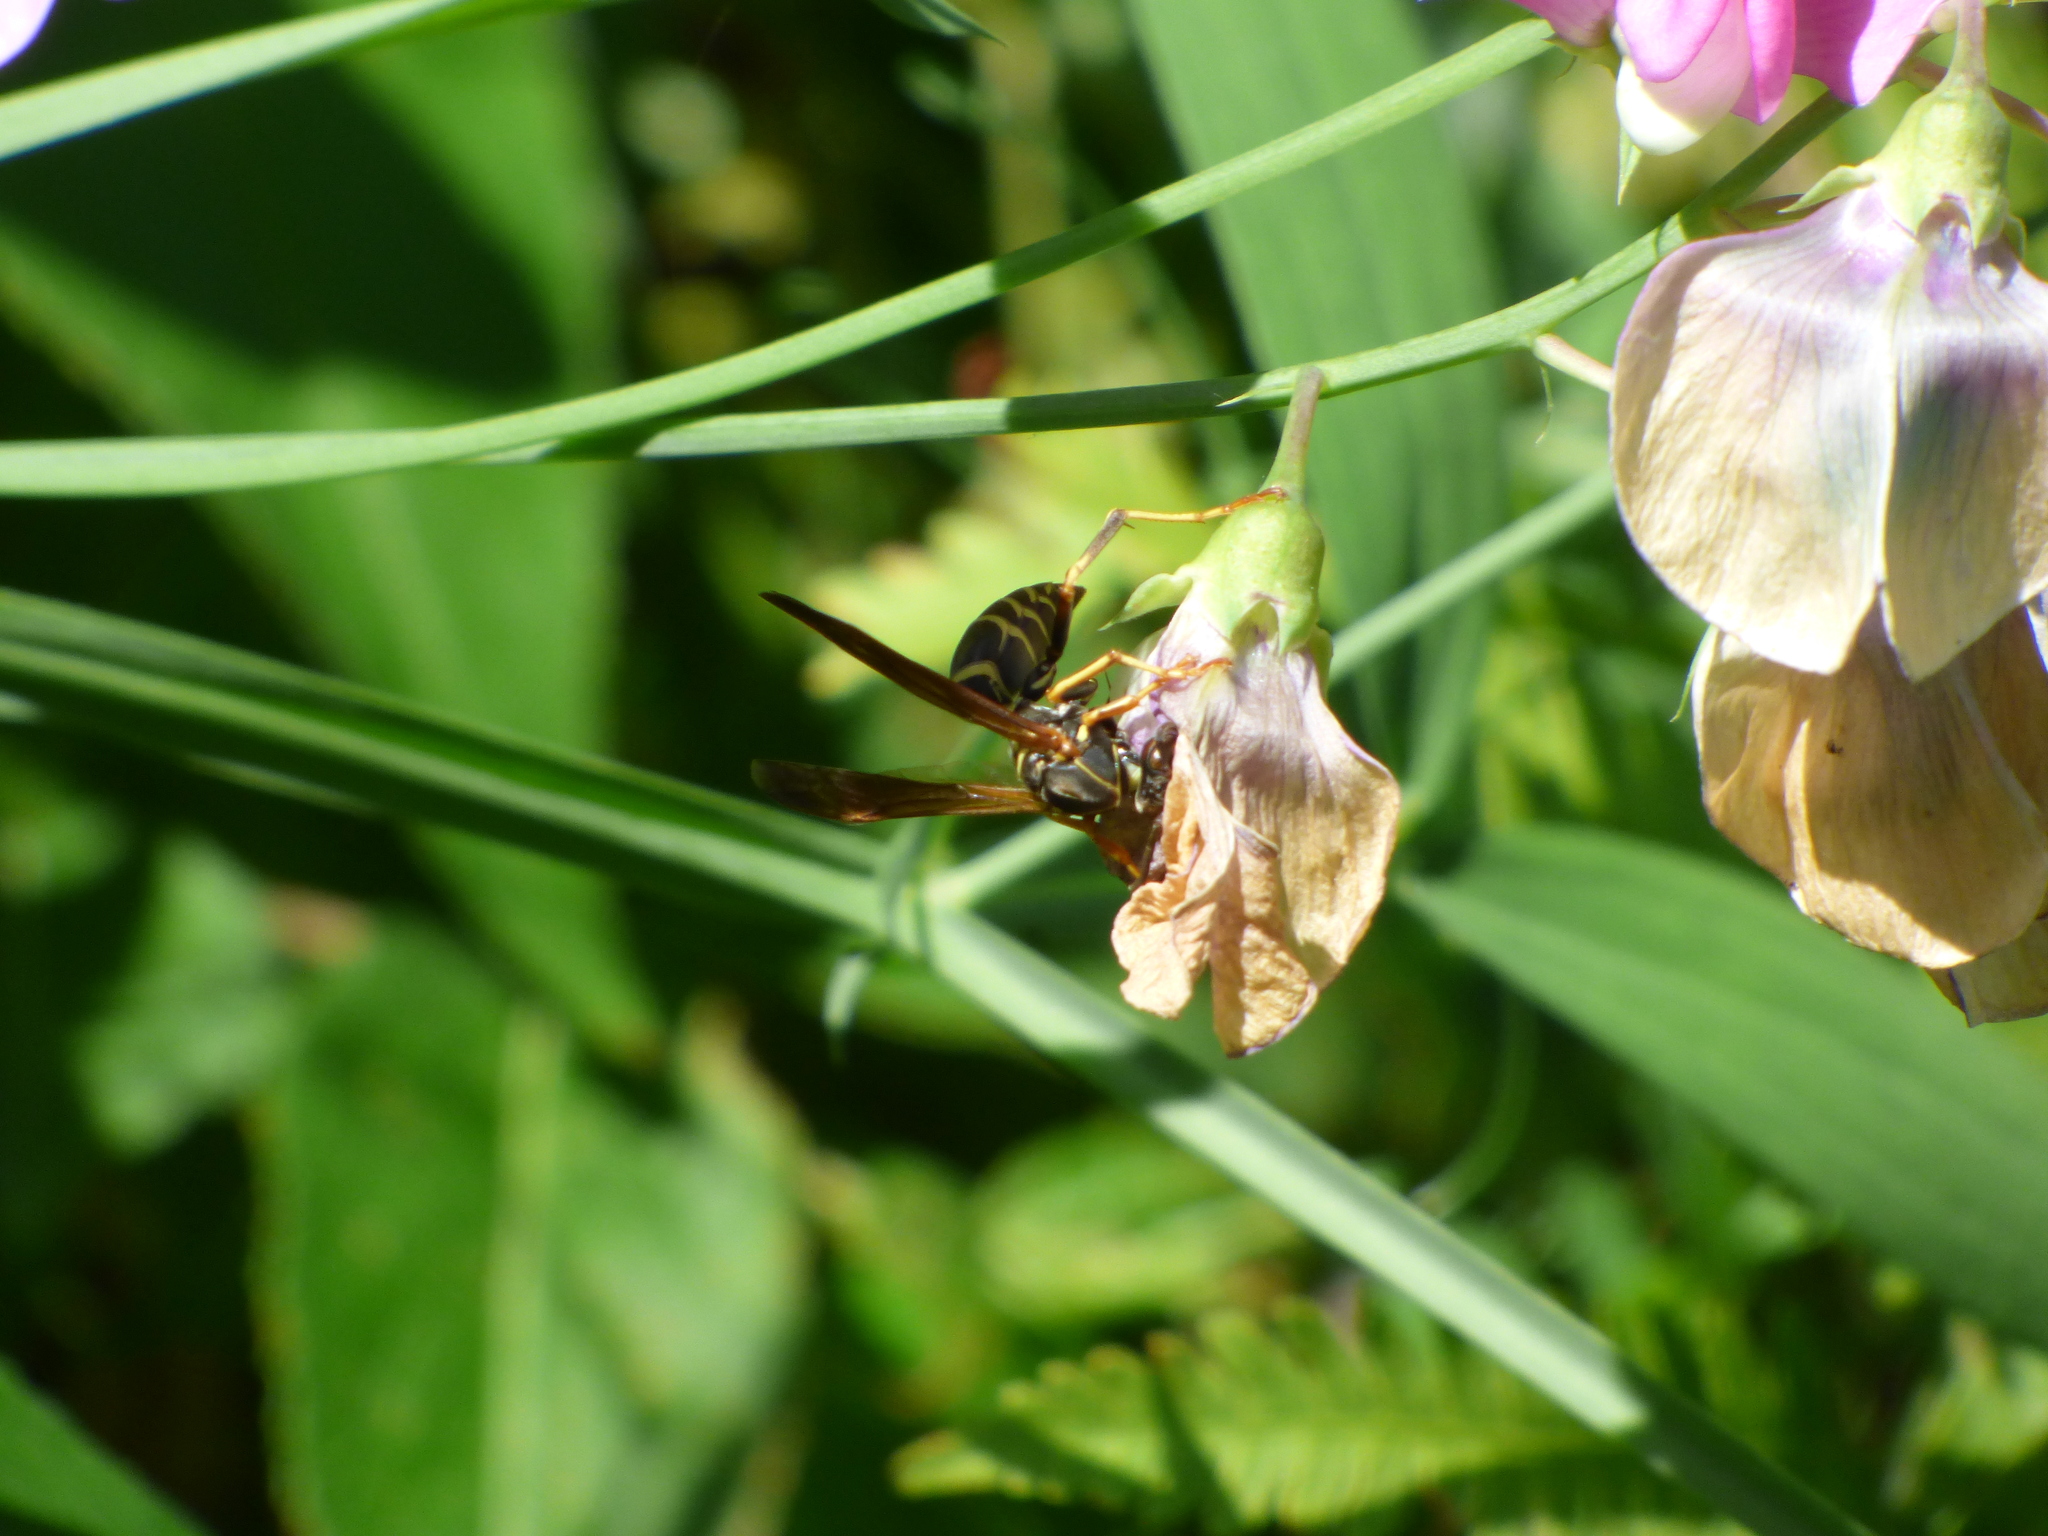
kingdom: Animalia
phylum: Arthropoda
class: Insecta
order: Hymenoptera
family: Eumenidae
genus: Polistes
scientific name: Polistes fuscatus
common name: Dark paper wasp
